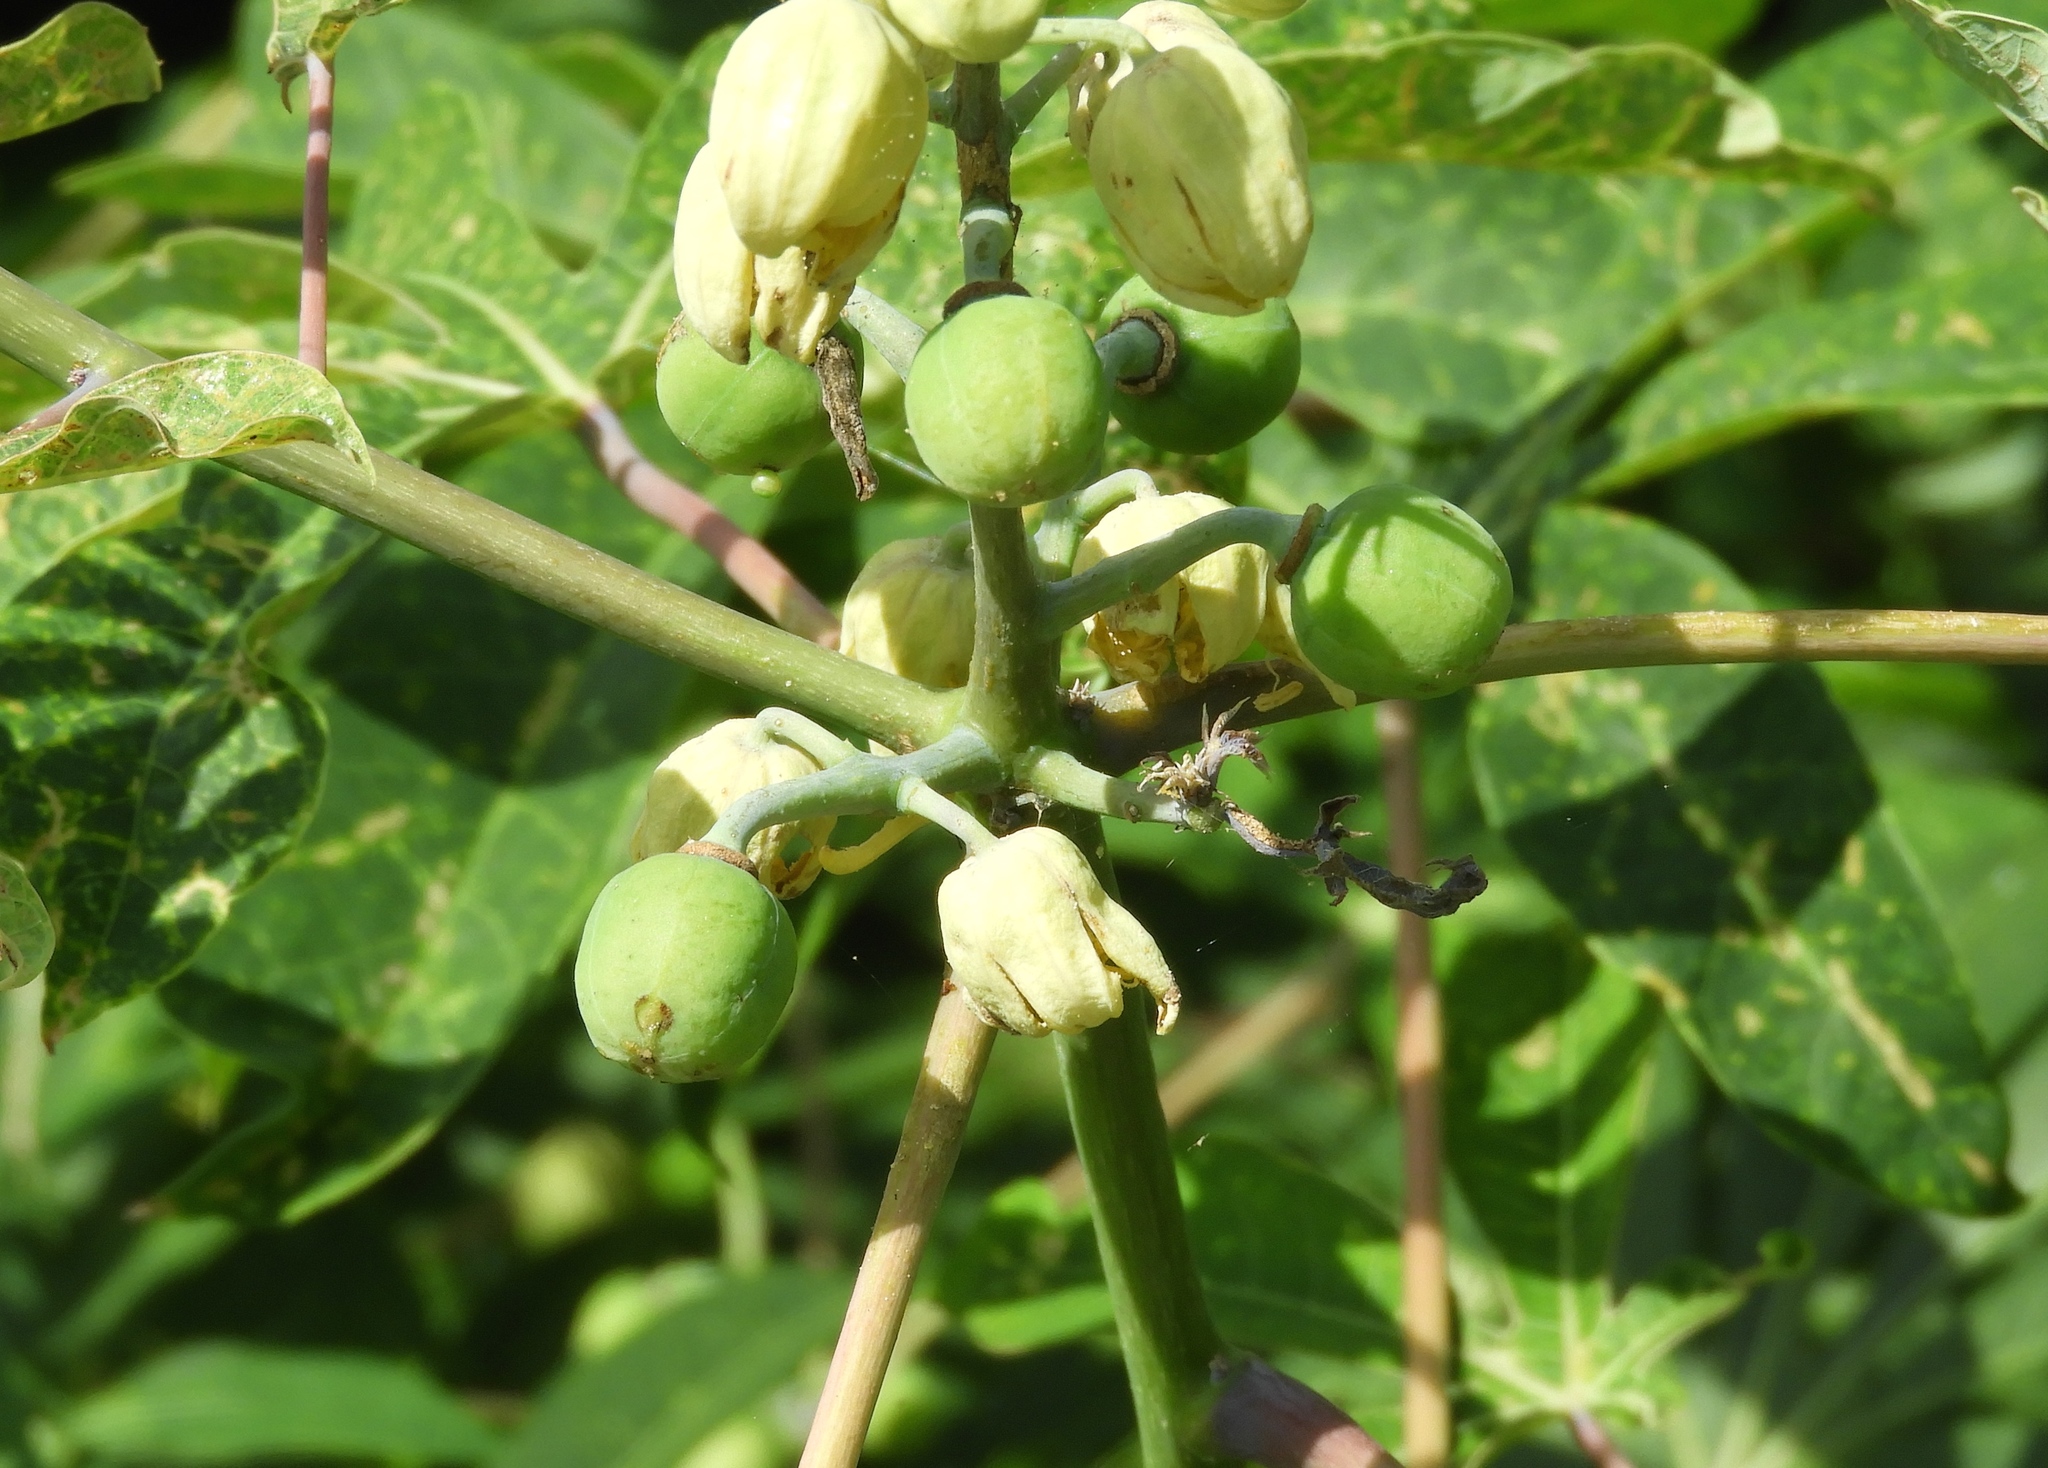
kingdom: Plantae
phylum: Tracheophyta
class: Magnoliopsida
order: Malpighiales
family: Euphorbiaceae
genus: Manihot
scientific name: Manihot esculenta
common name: Cassava
